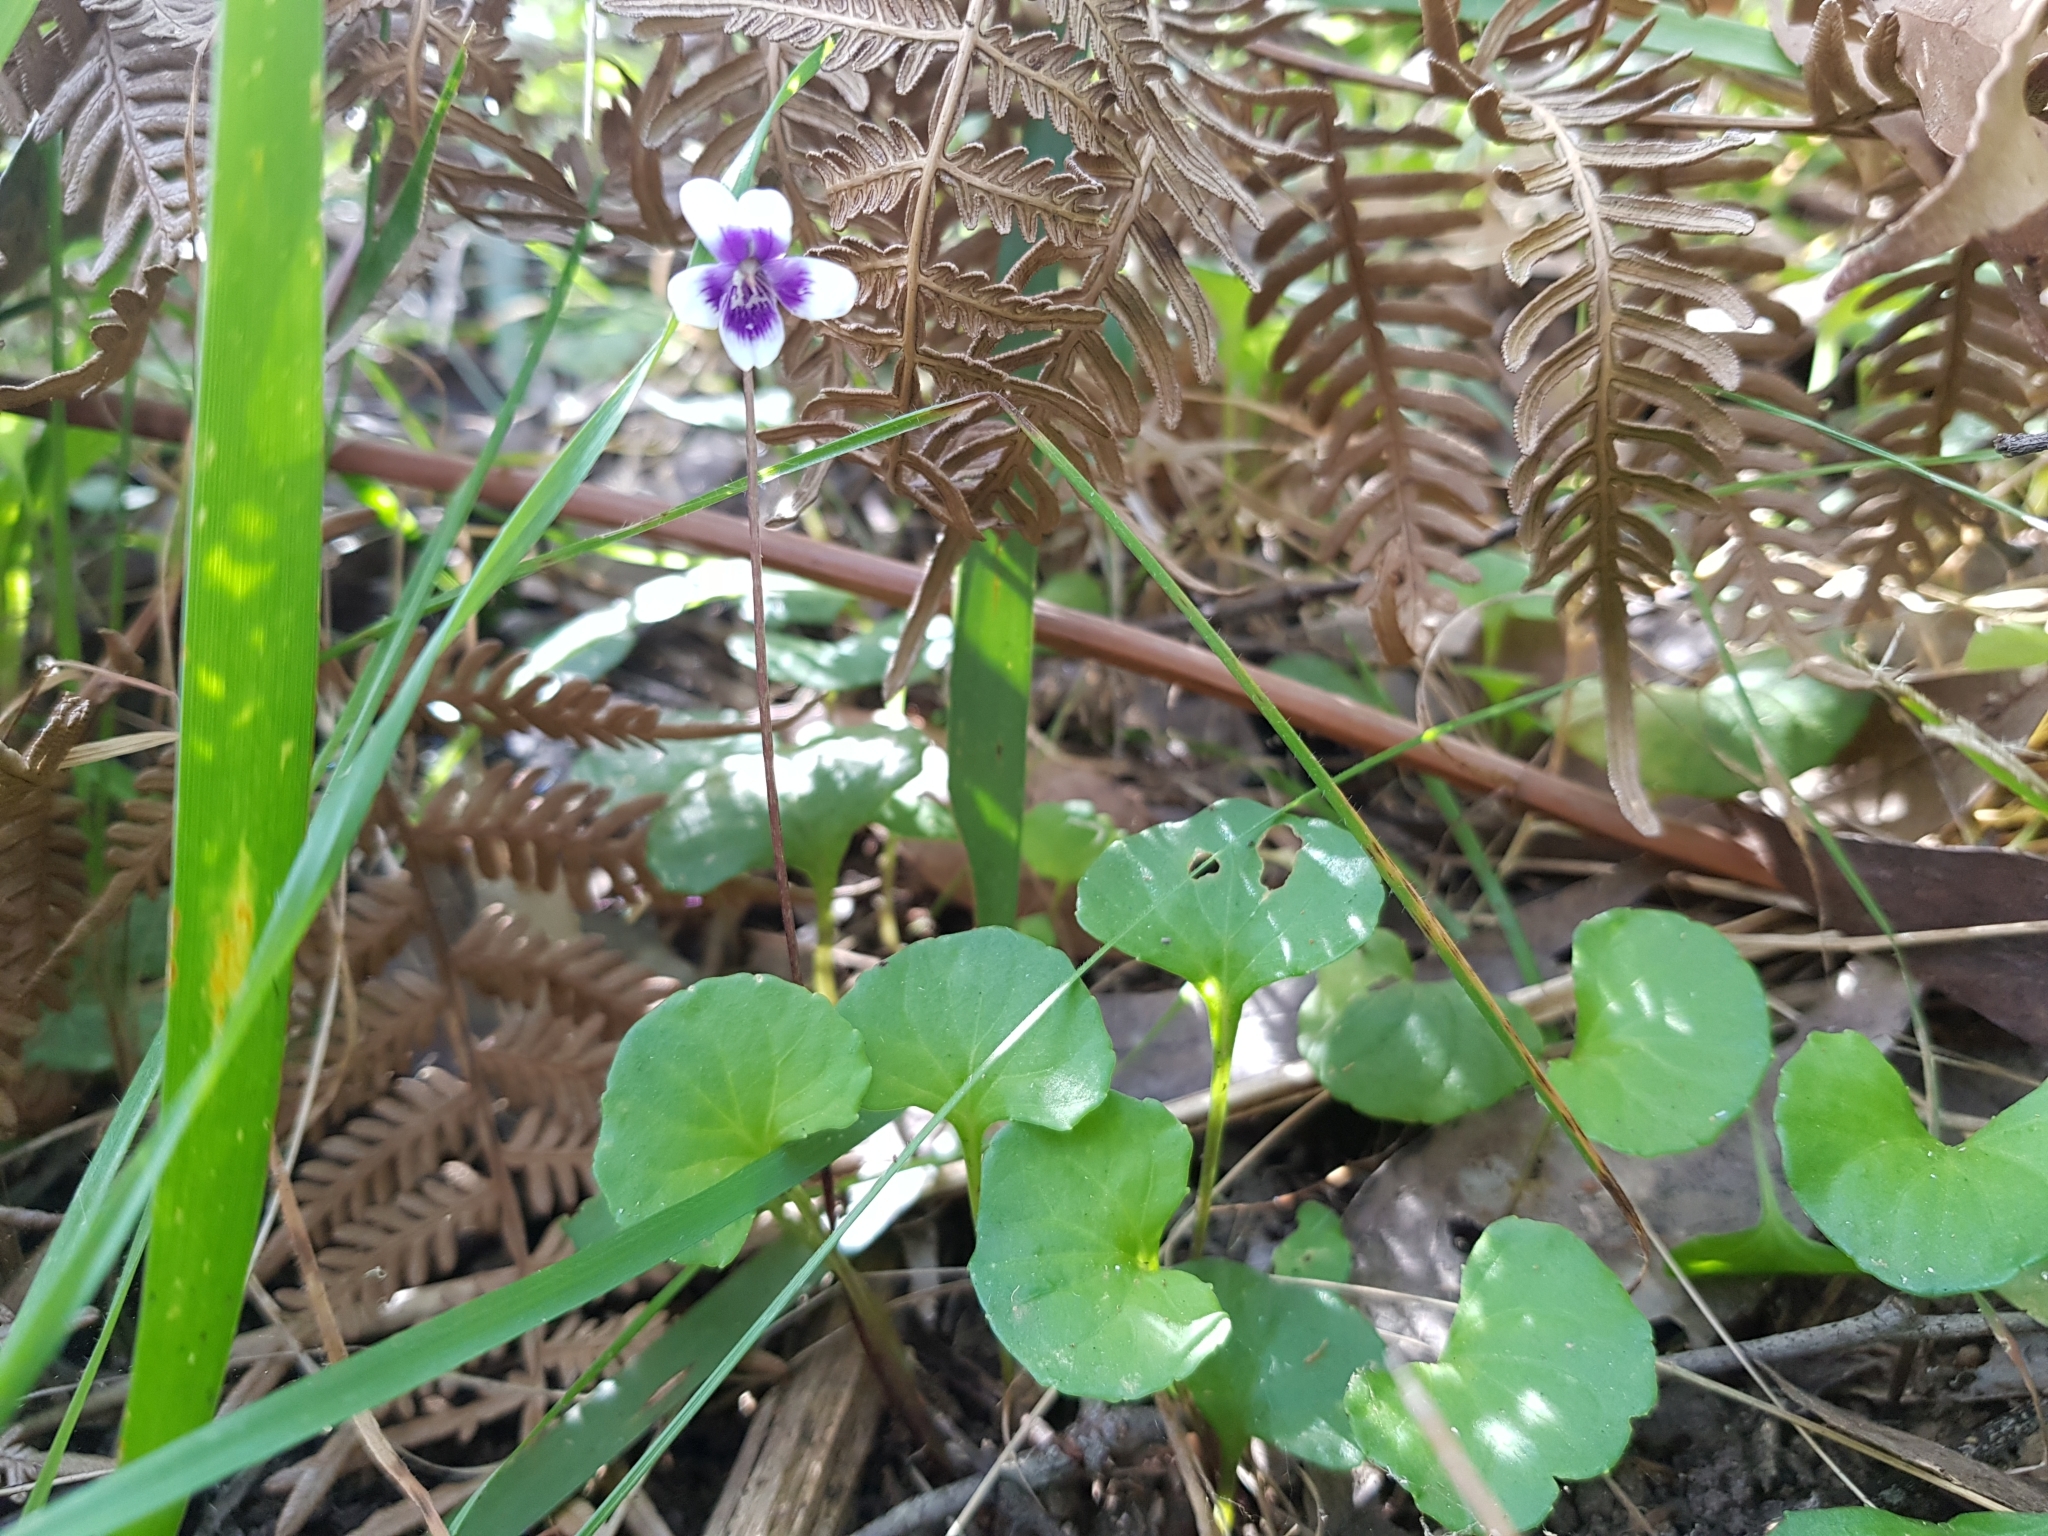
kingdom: Plantae
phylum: Tracheophyta
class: Magnoliopsida
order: Malpighiales
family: Violaceae
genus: Viola
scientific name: Viola hederacea
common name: Australian violet
